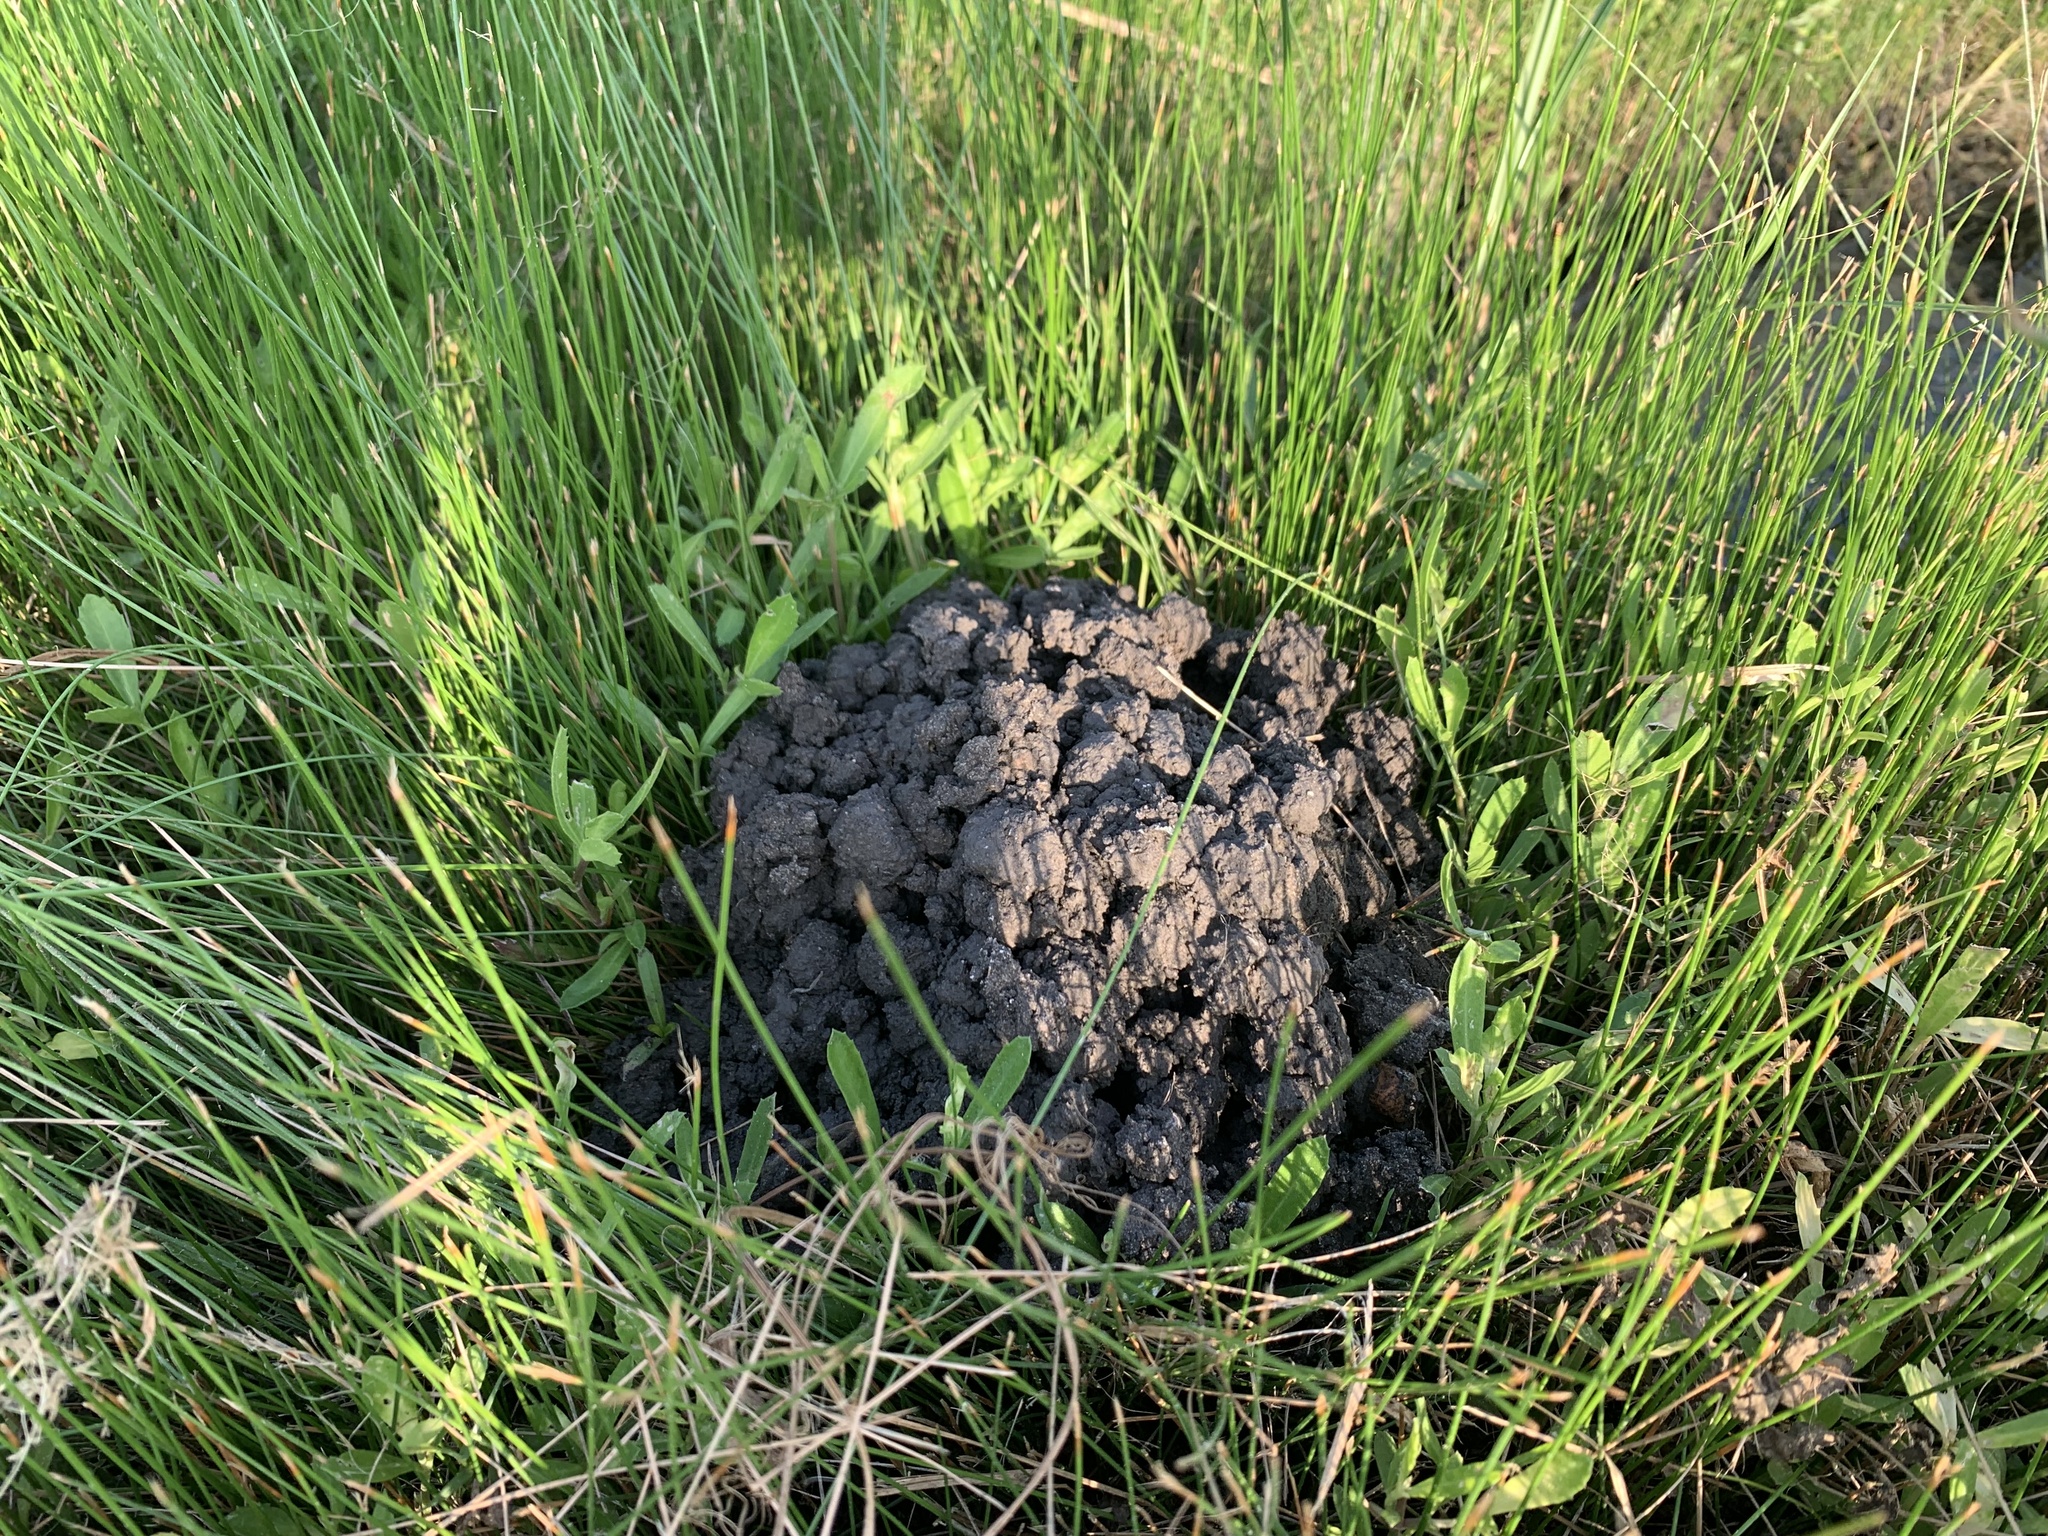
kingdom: Animalia
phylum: Arthropoda
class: Malacostraca
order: Decapoda
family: Cambaridae
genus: Procambarus
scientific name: Procambarus curdi
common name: Red river burrowing crayfish
